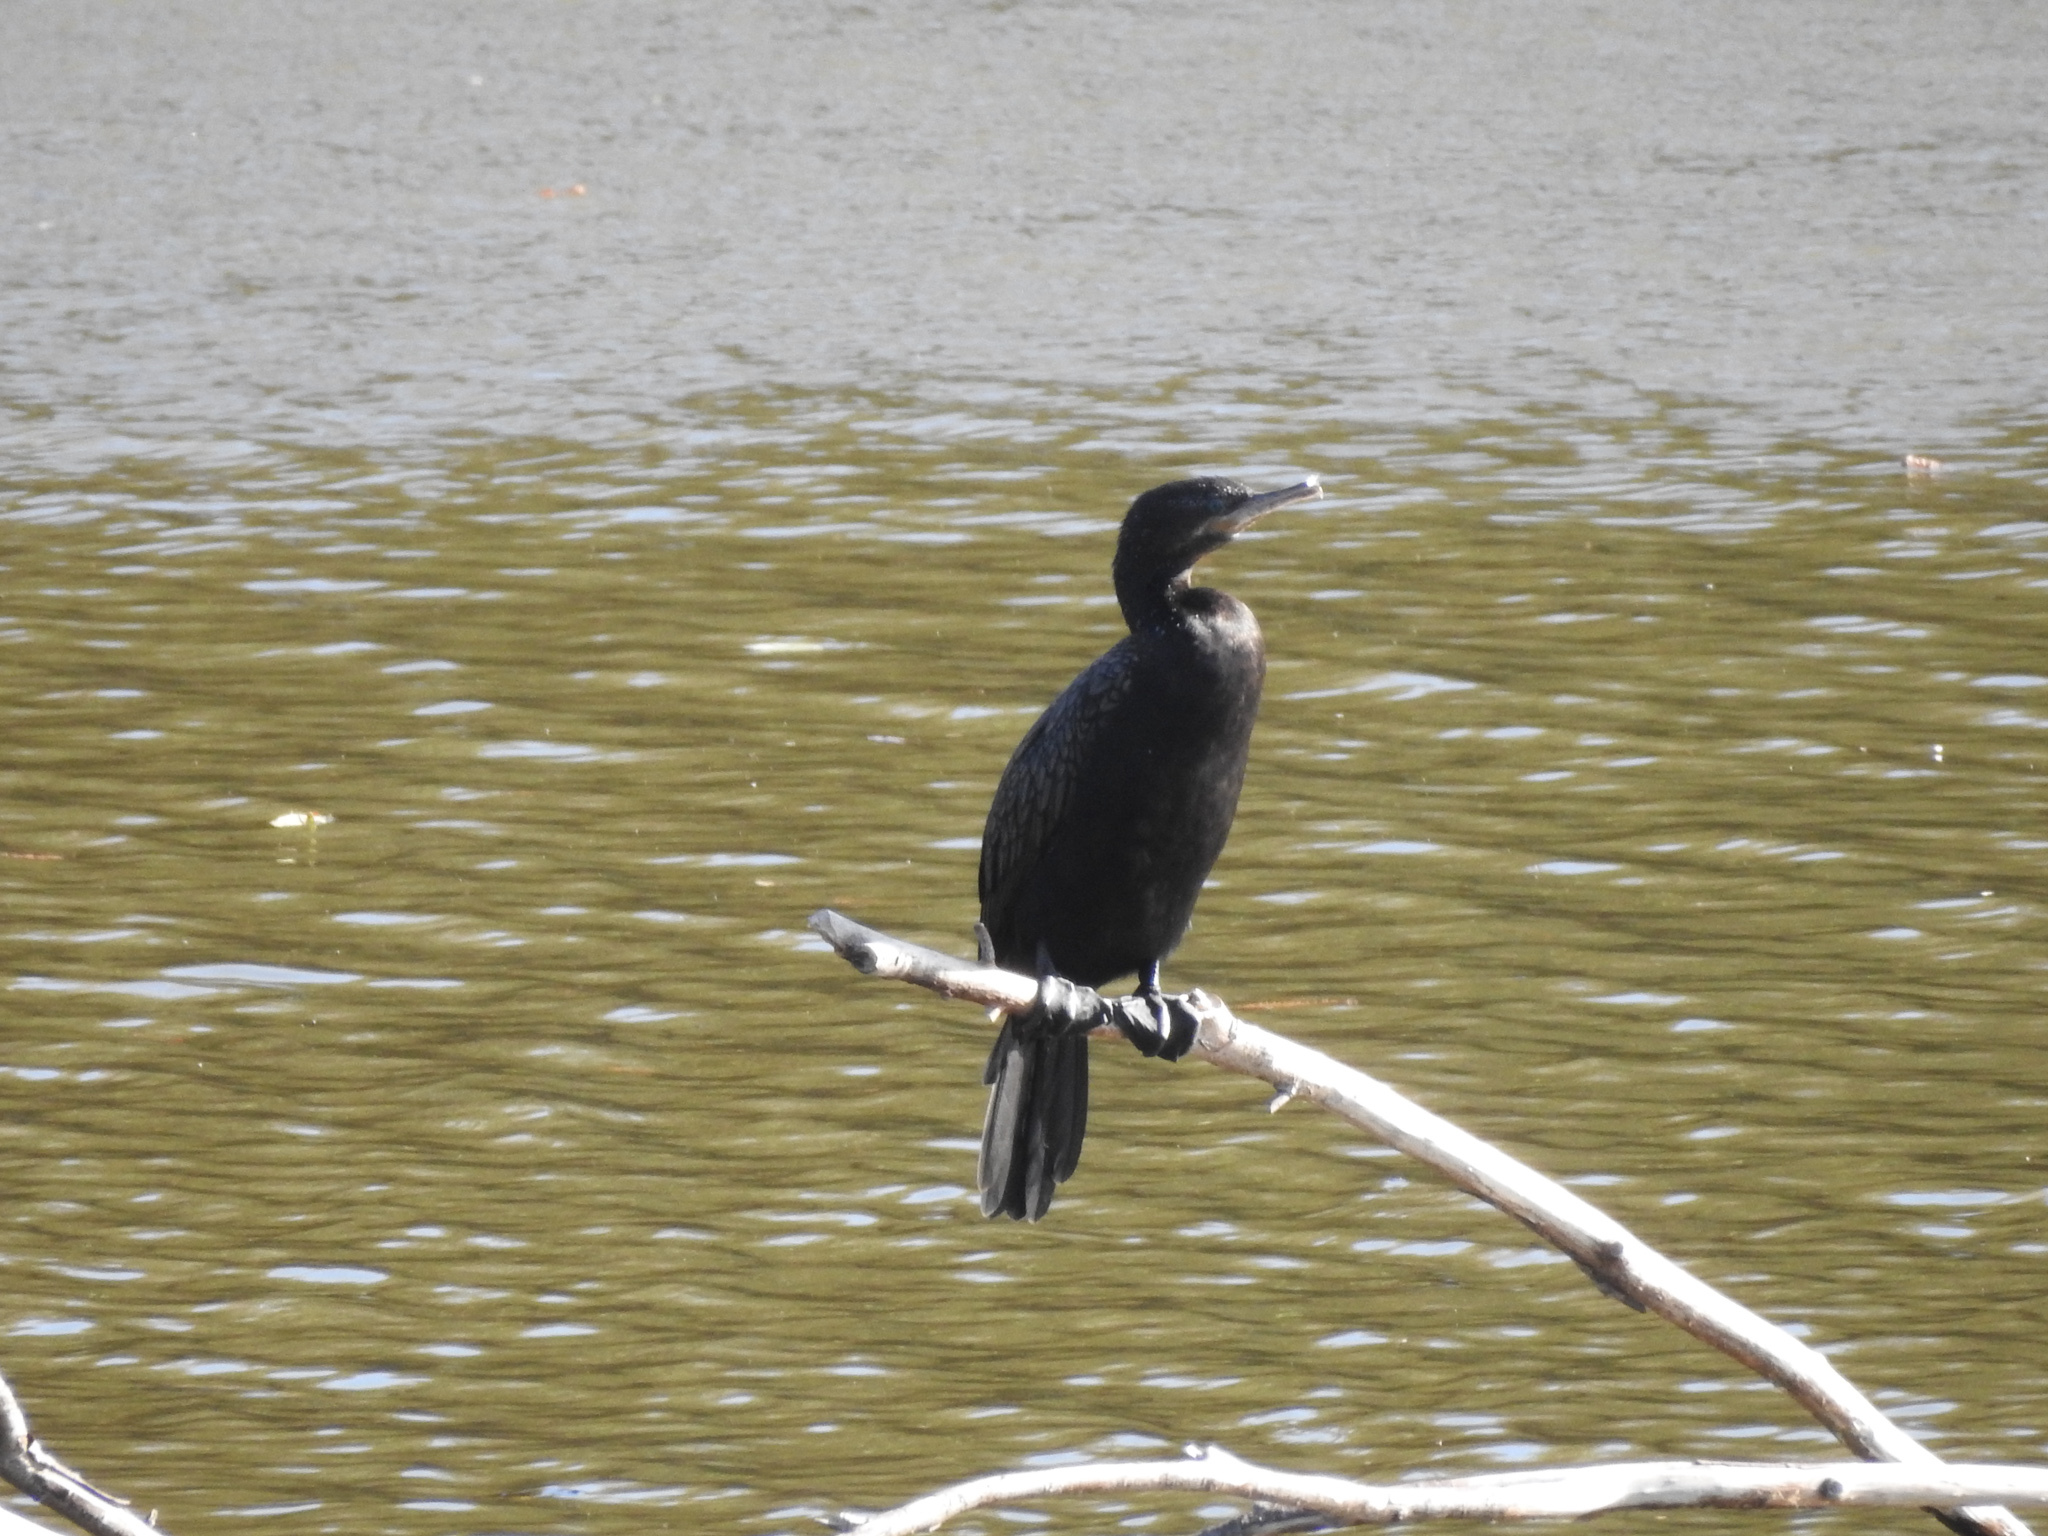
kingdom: Animalia
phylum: Chordata
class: Aves
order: Suliformes
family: Phalacrocoracidae
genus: Phalacrocorax
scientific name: Phalacrocorax brasilianus
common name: Neotropic cormorant
